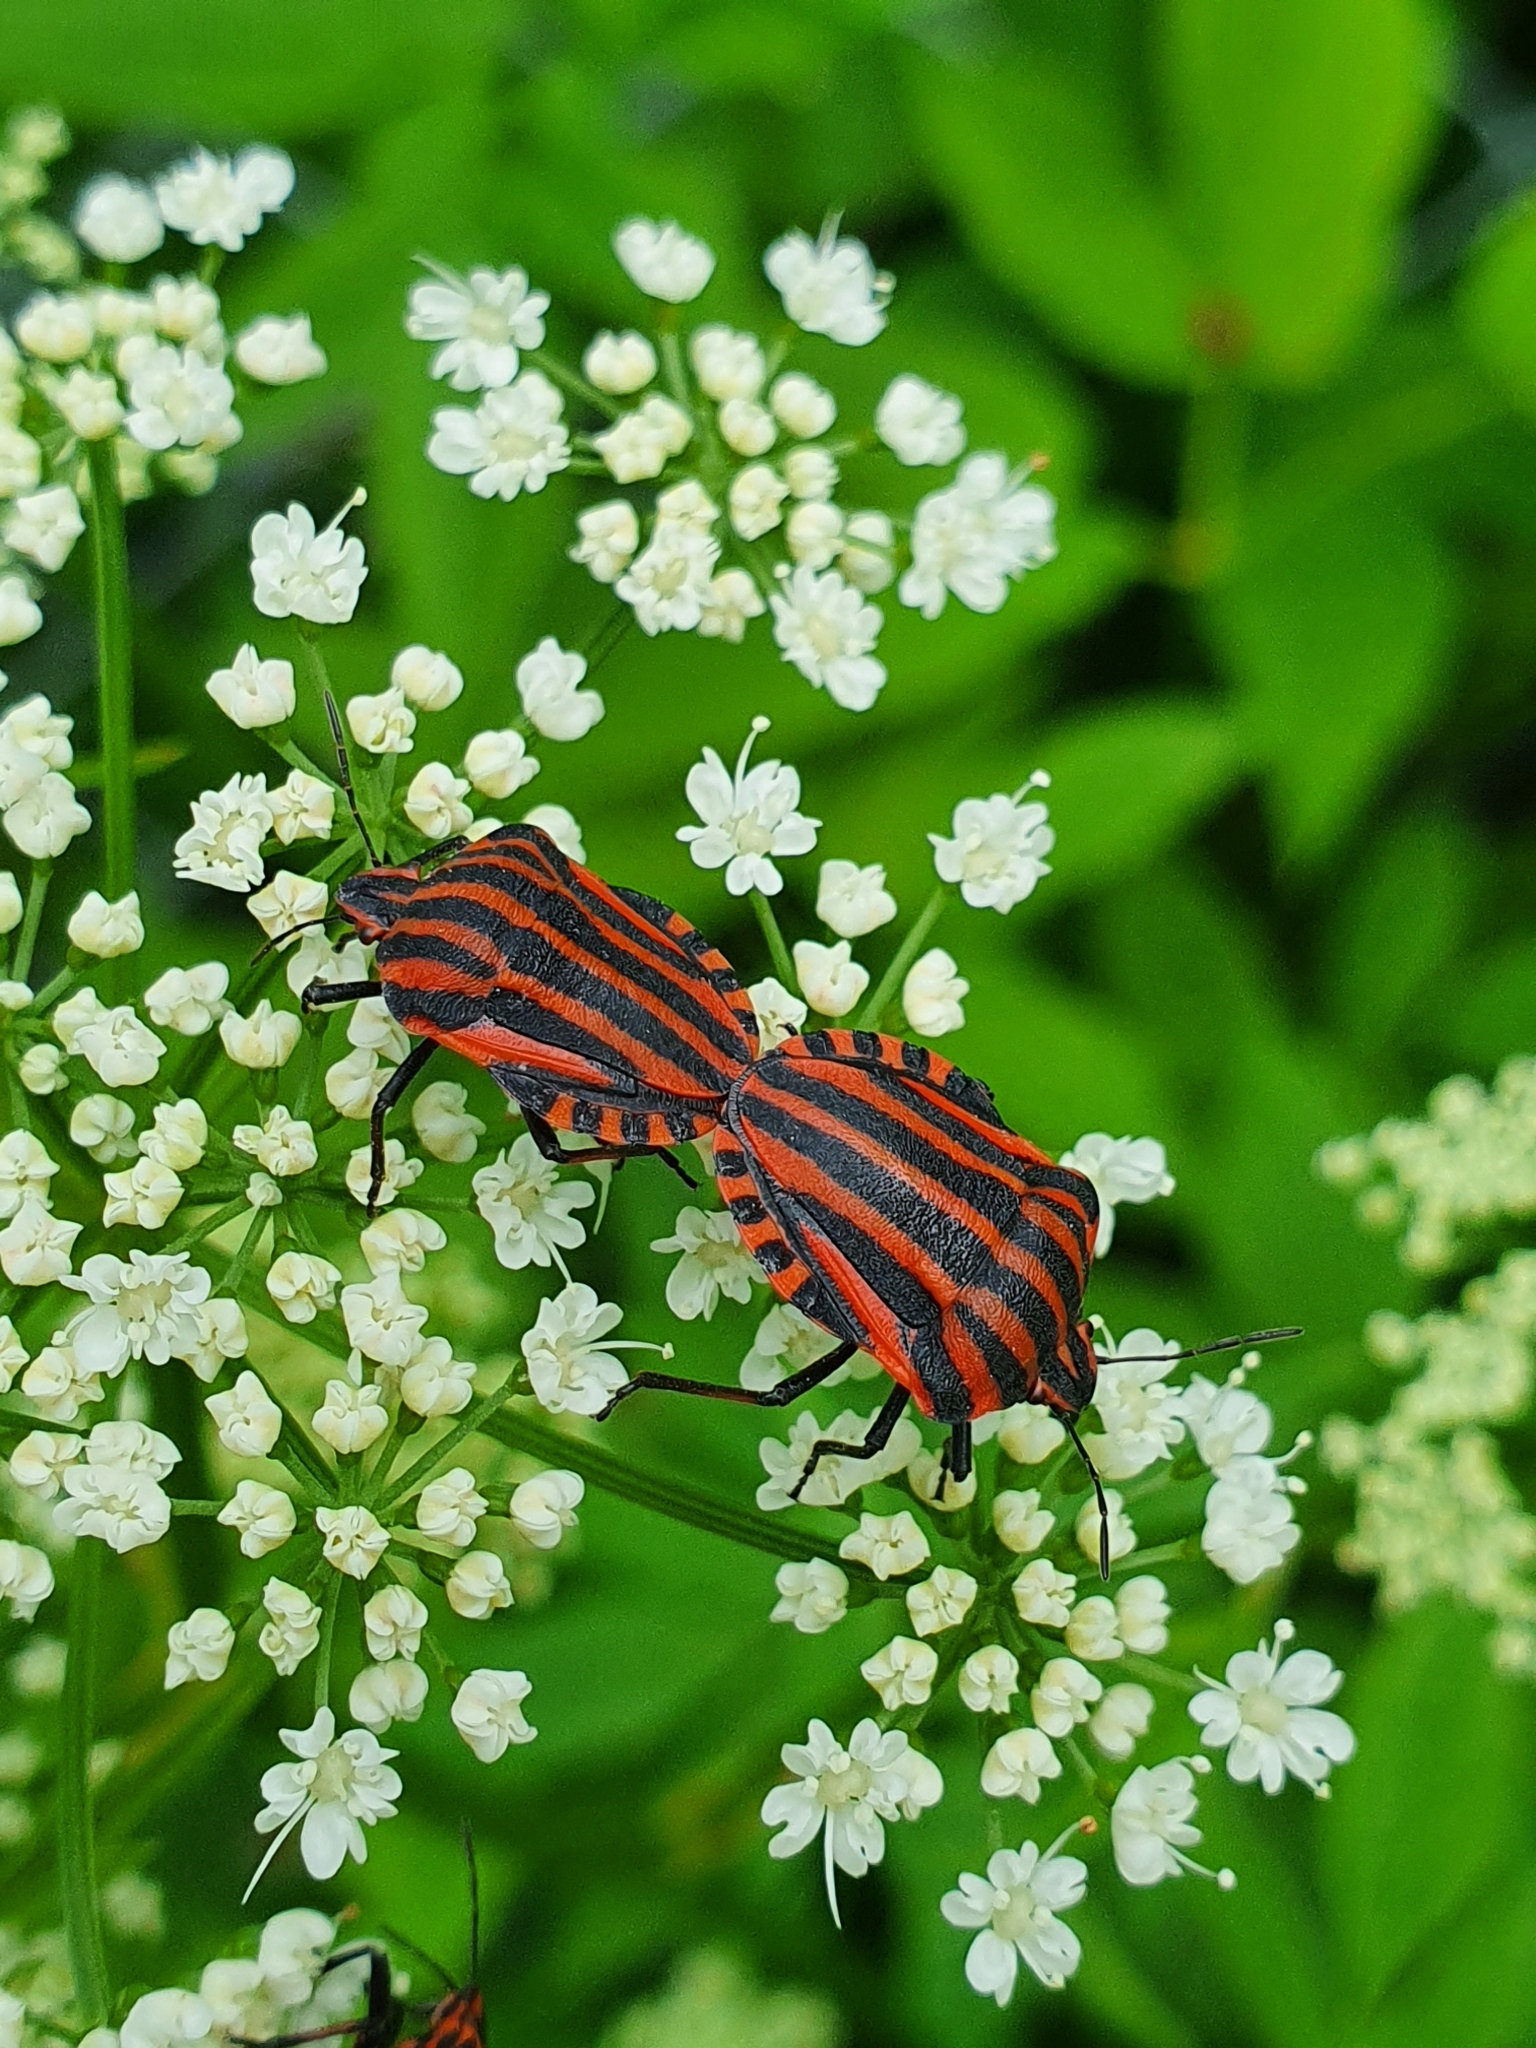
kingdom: Animalia
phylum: Arthropoda
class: Insecta
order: Hemiptera
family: Pentatomidae
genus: Graphosoma
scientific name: Graphosoma italicum
